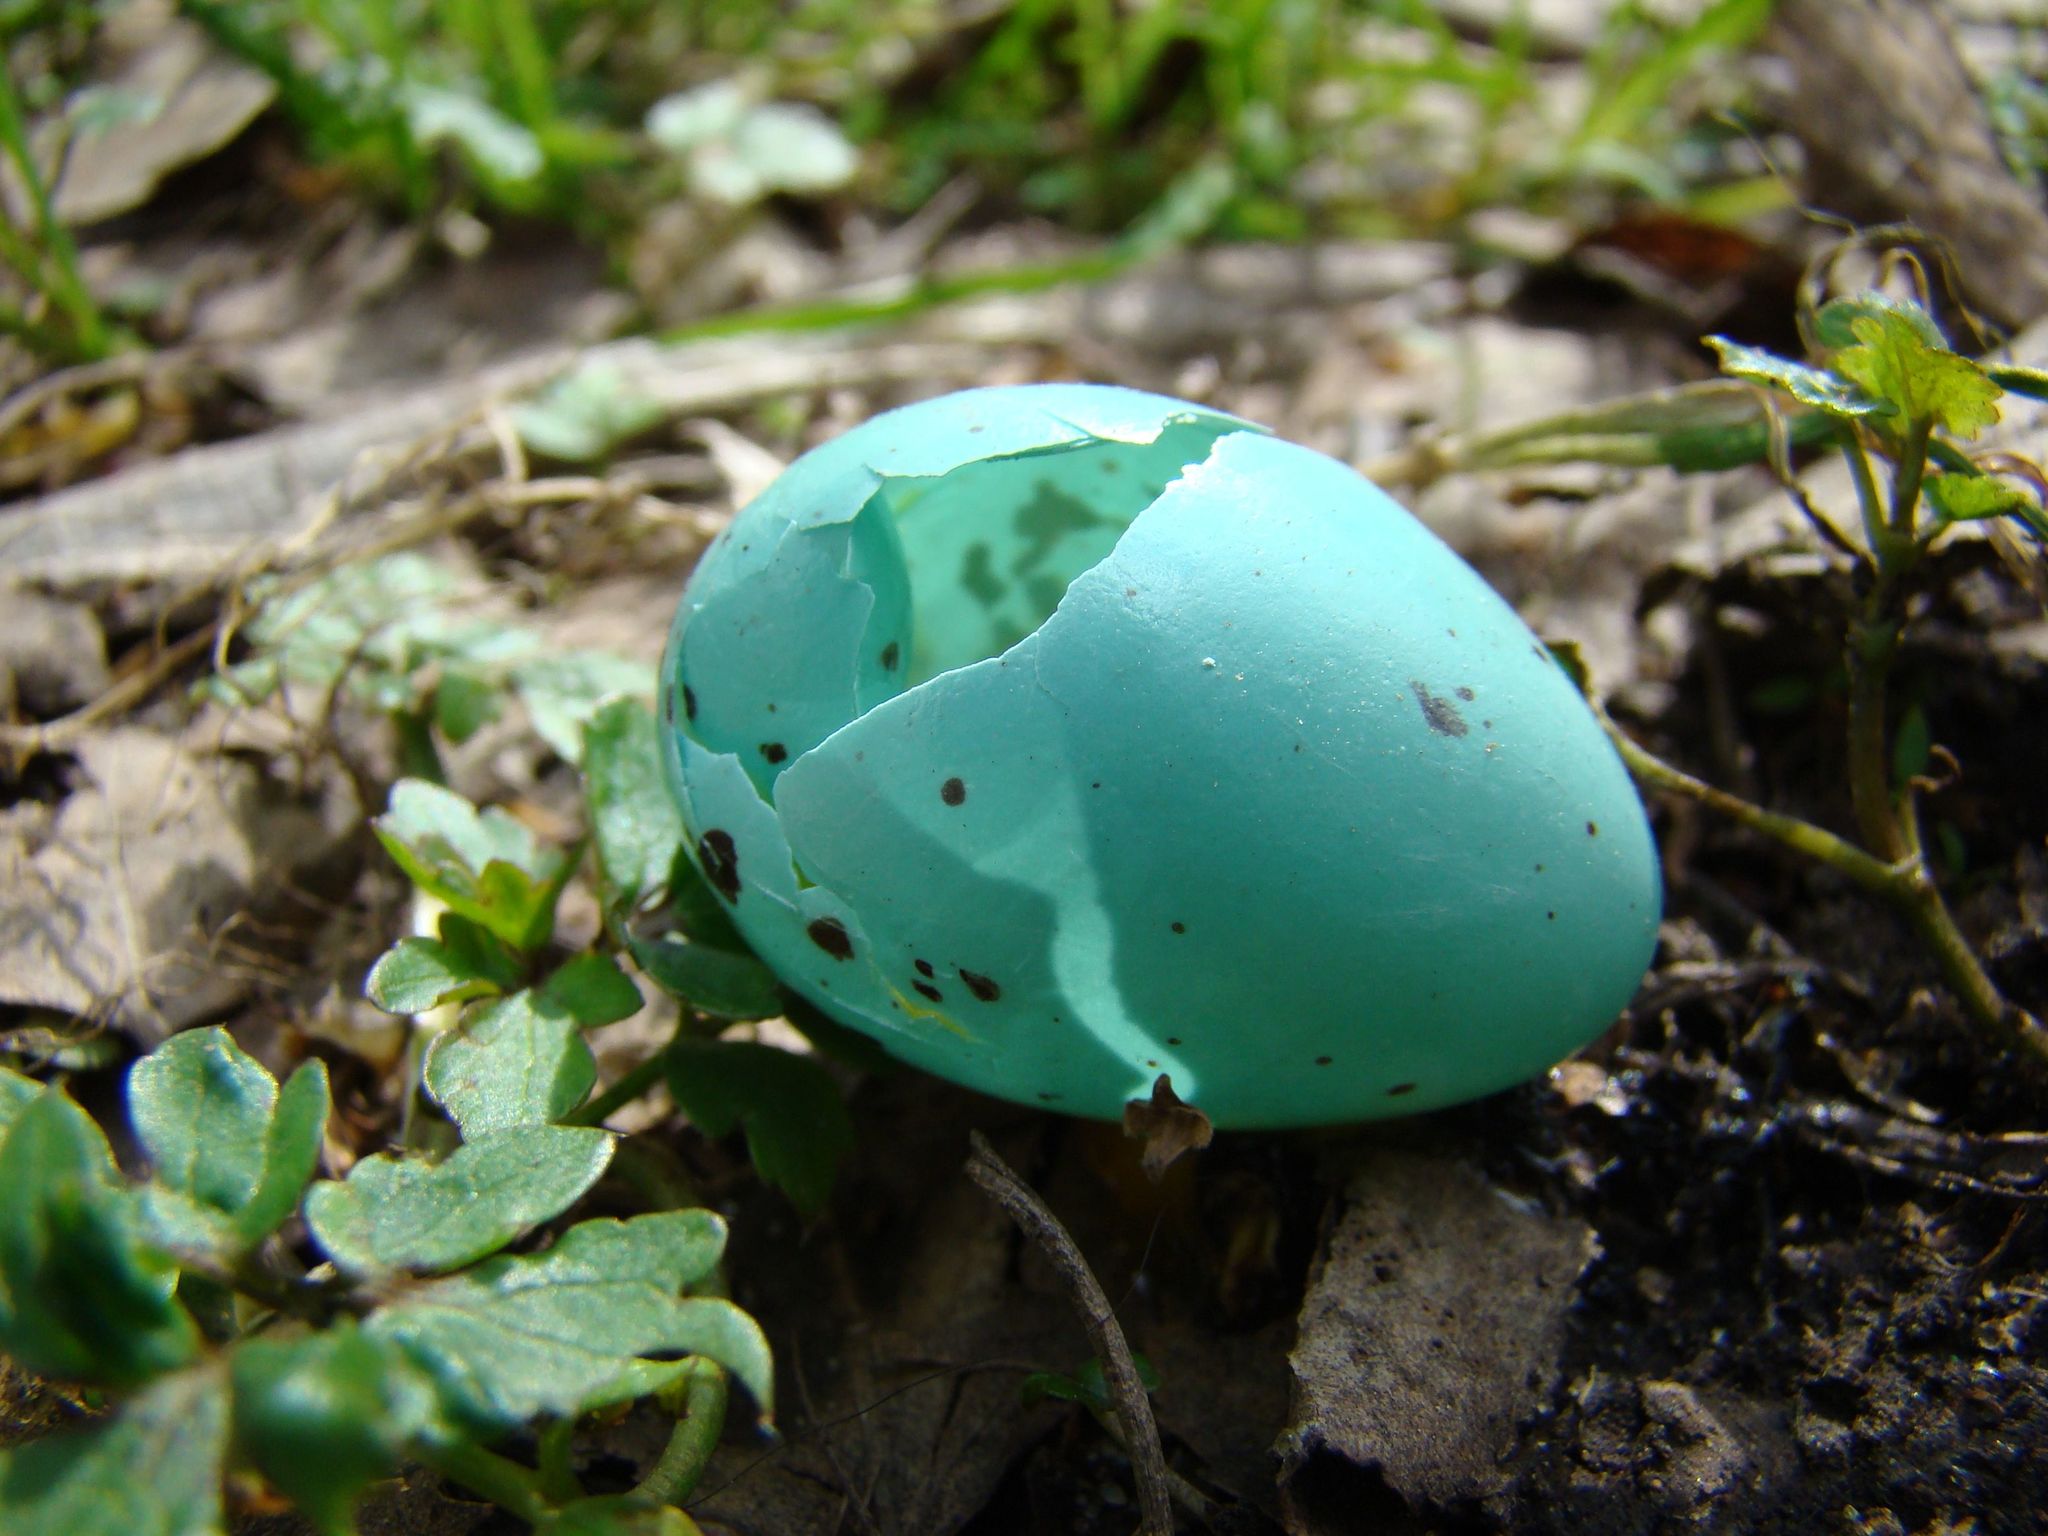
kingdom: Animalia
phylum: Chordata
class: Aves
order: Passeriformes
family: Turdidae
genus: Turdus
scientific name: Turdus philomelos
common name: Song thrush
